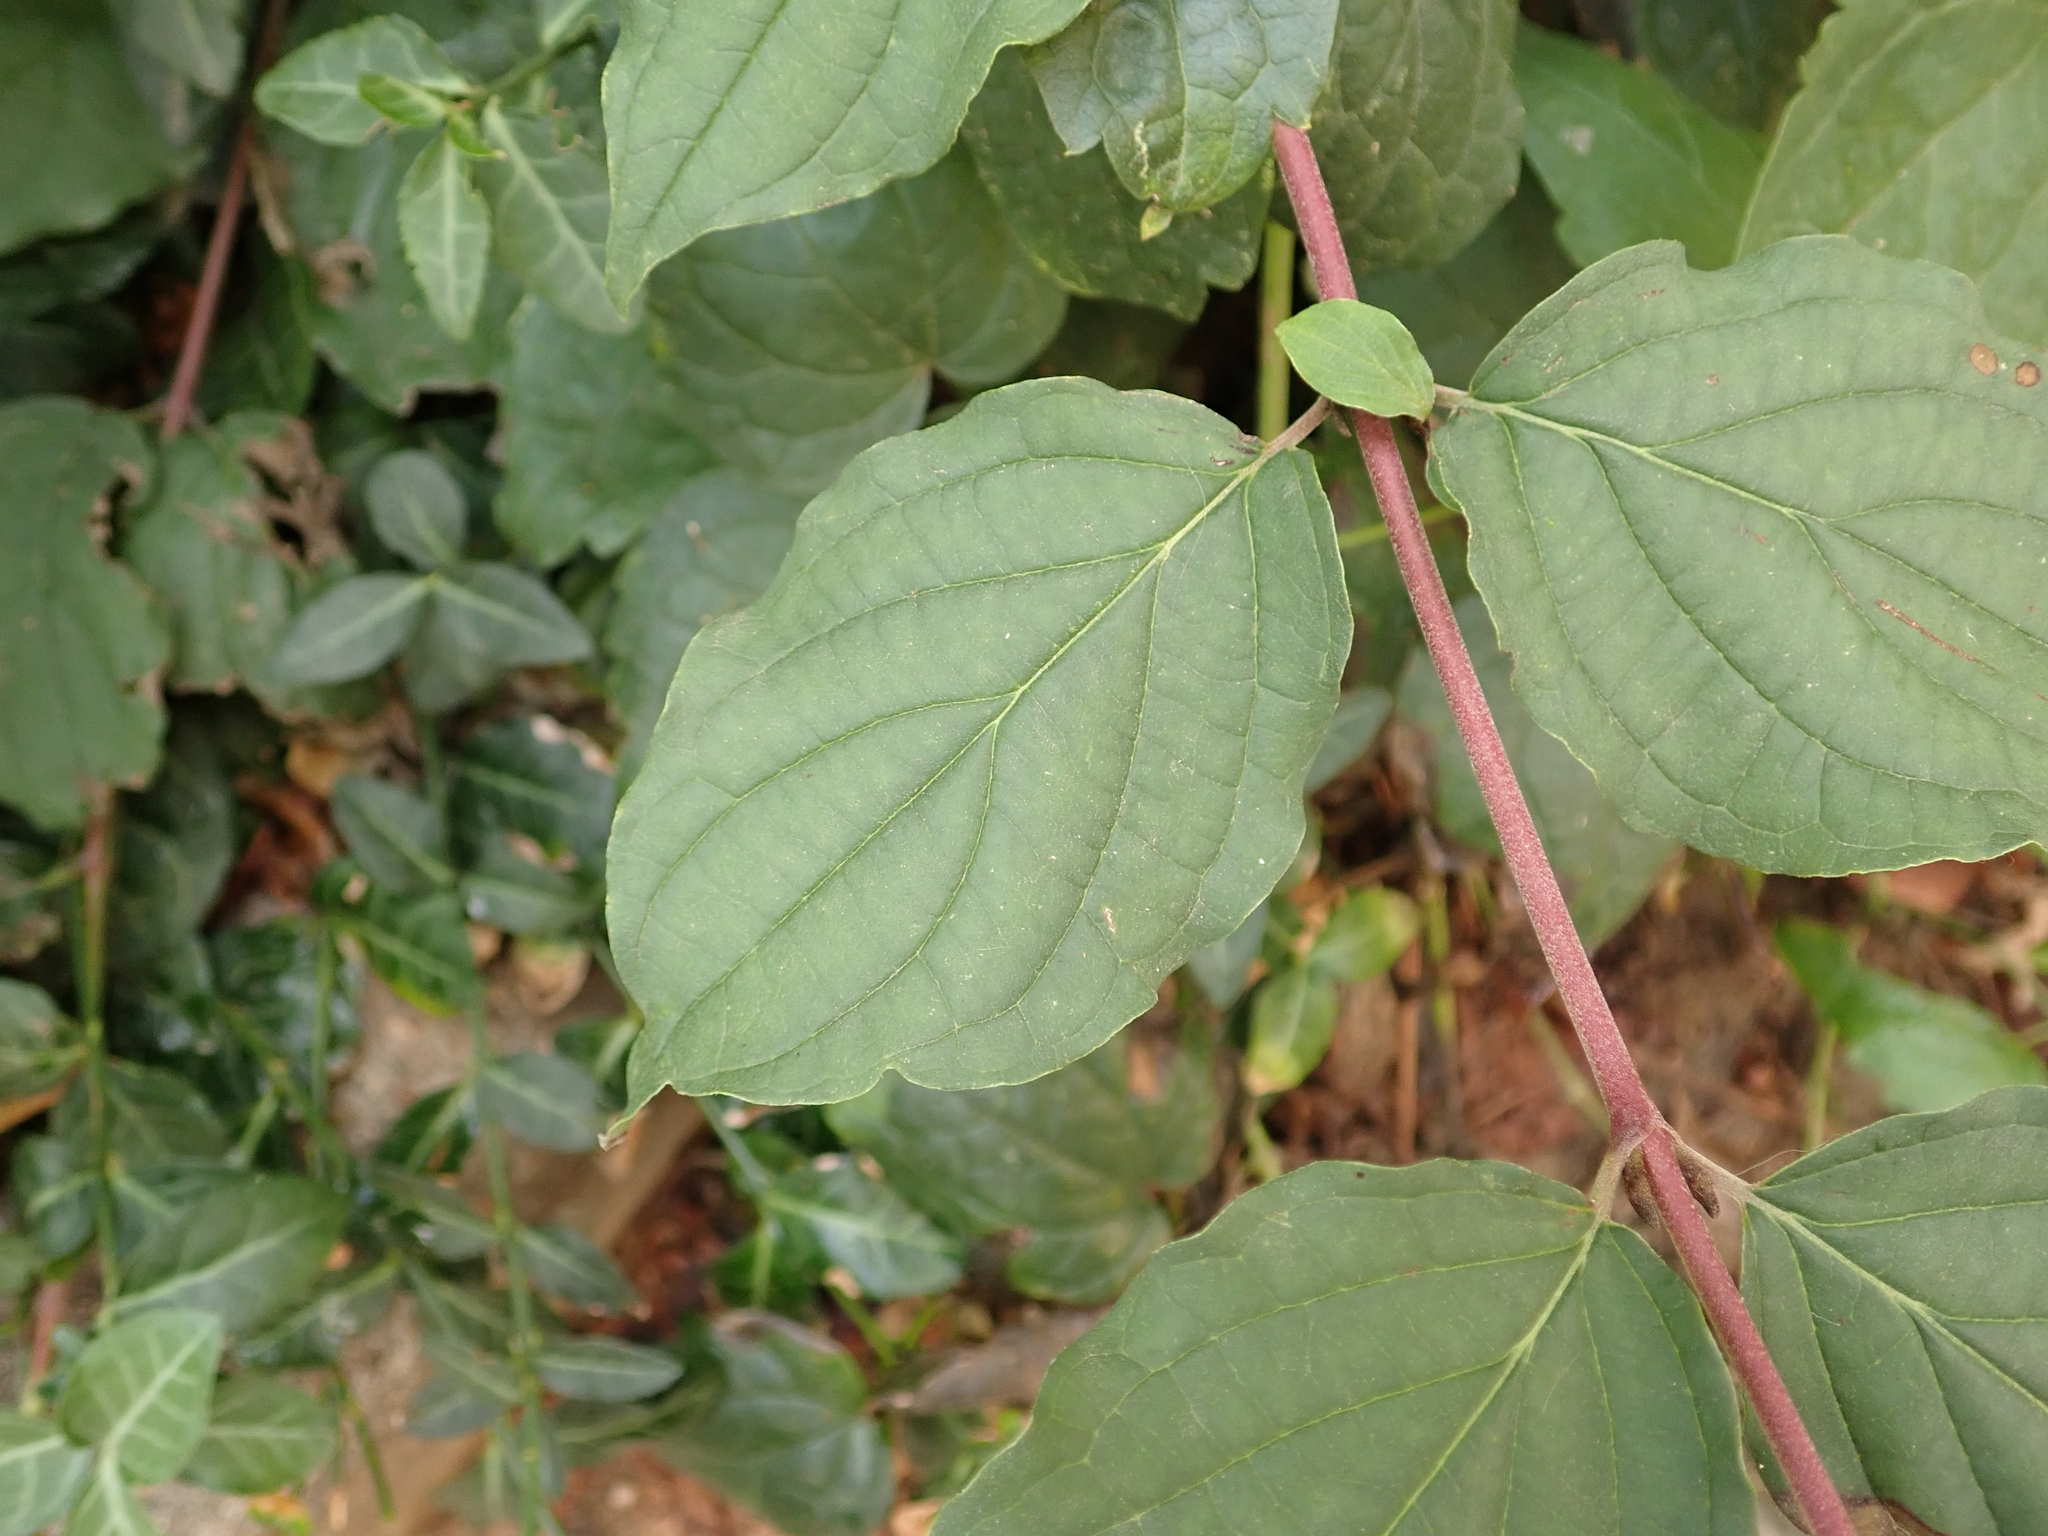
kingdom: Plantae
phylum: Tracheophyta
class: Magnoliopsida
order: Cornales
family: Cornaceae
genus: Cornus
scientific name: Cornus sanguinea
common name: Dogwood
